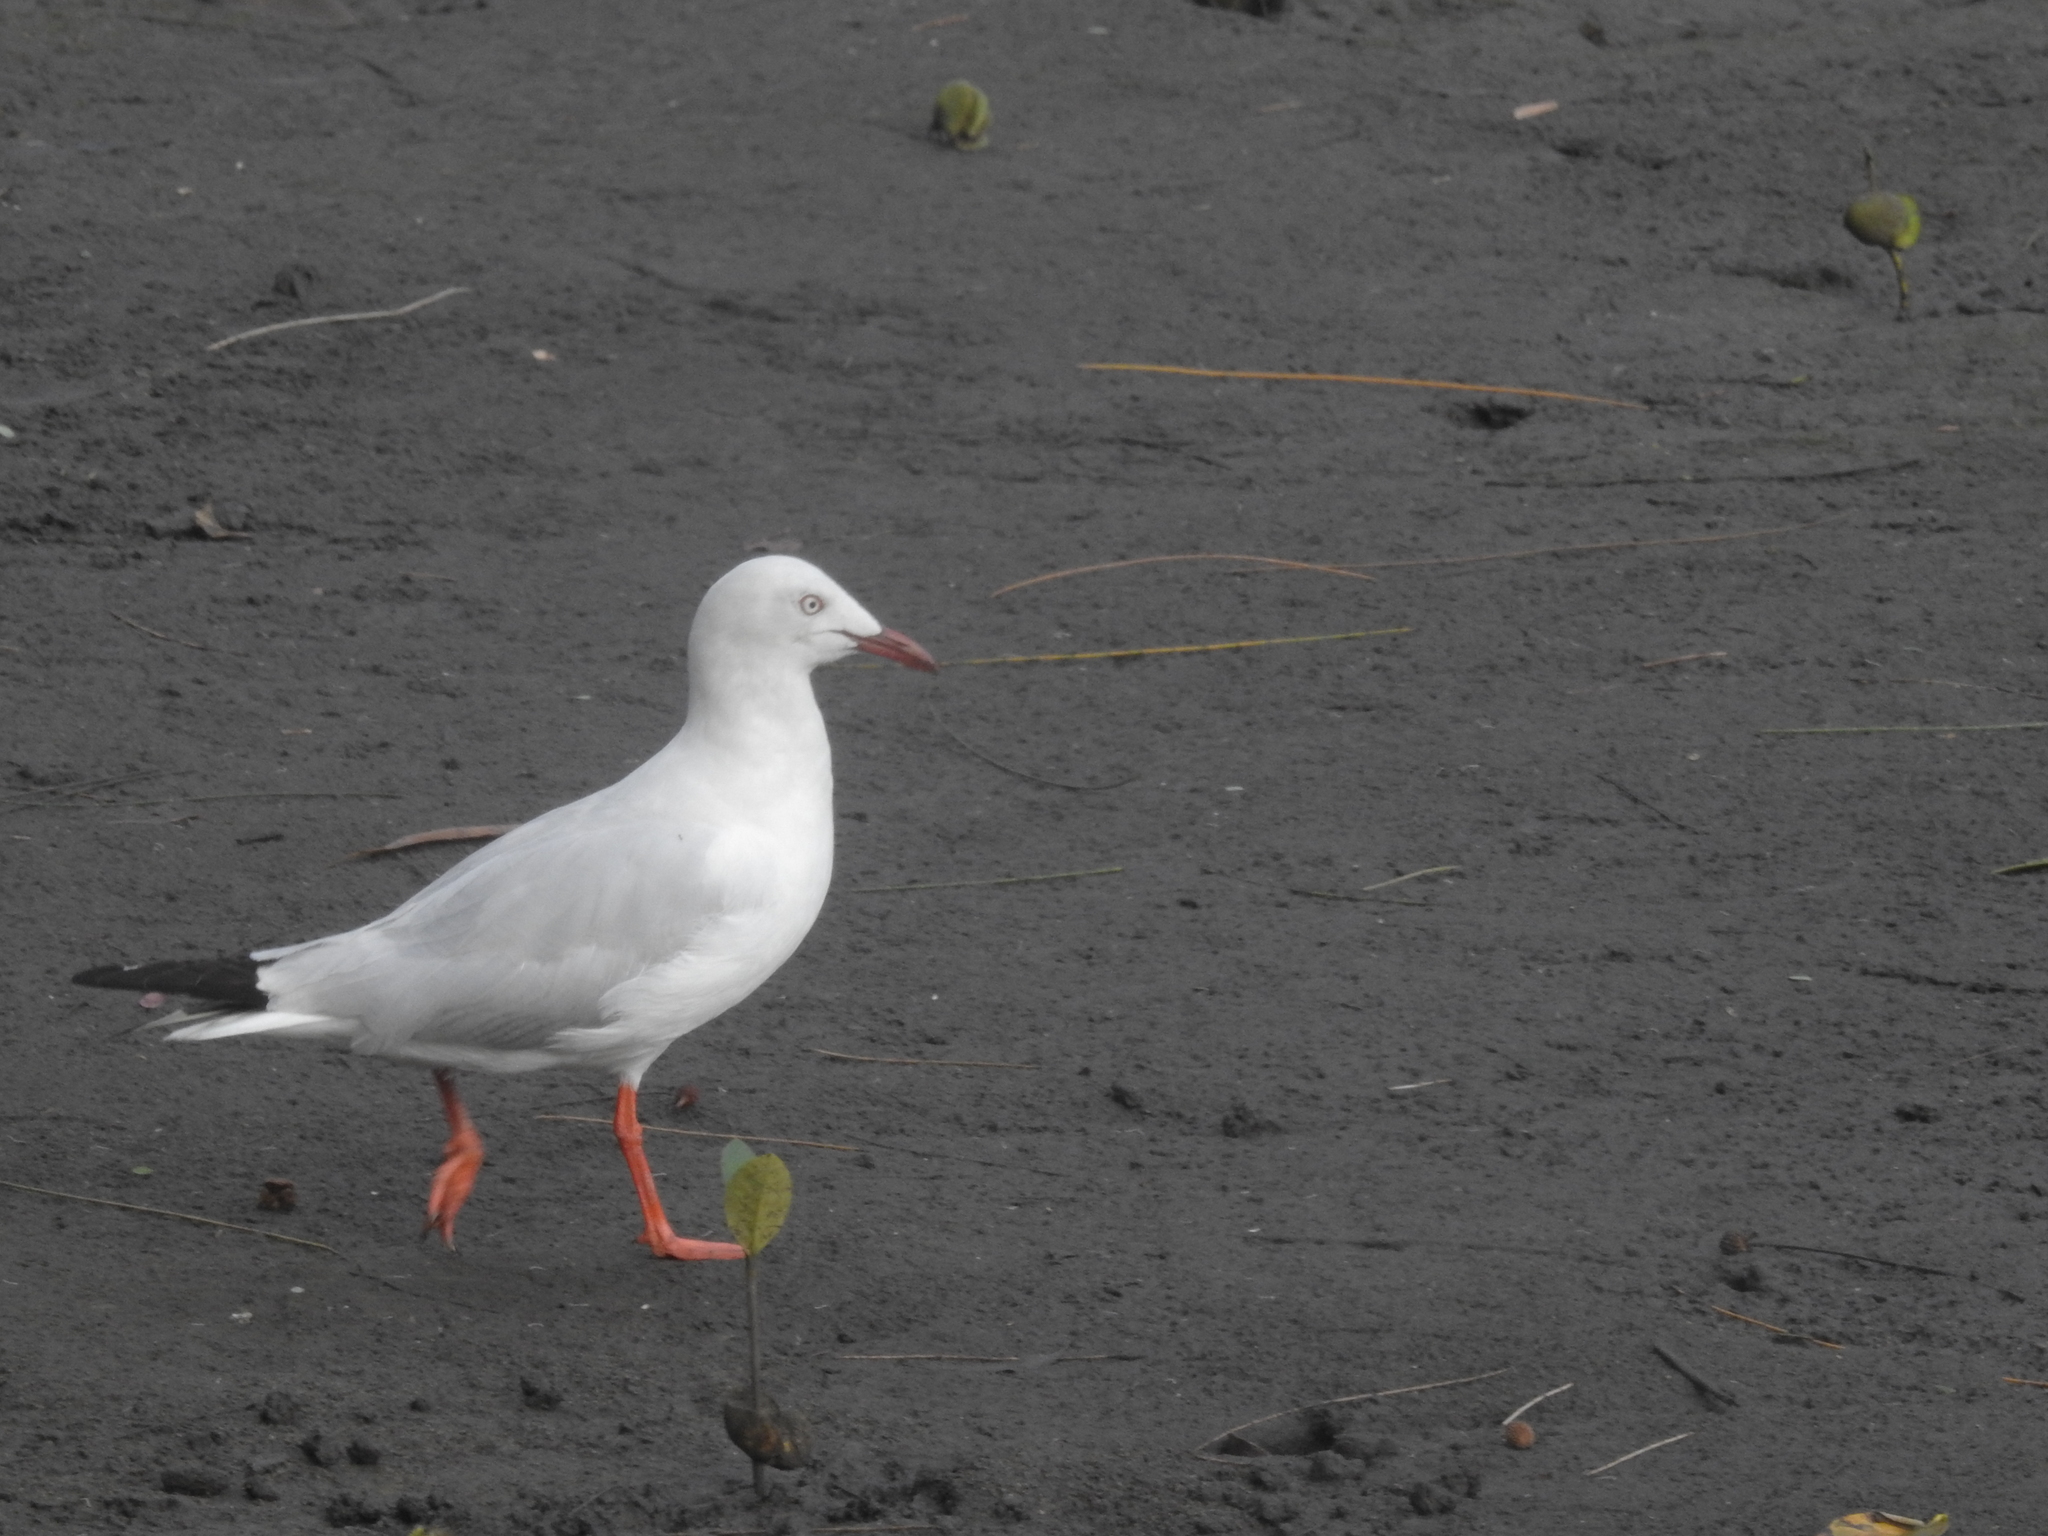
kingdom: Animalia
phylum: Chordata
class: Aves
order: Charadriiformes
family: Laridae
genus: Chroicocephalus
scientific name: Chroicocephalus novaehollandiae
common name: Silver gull
